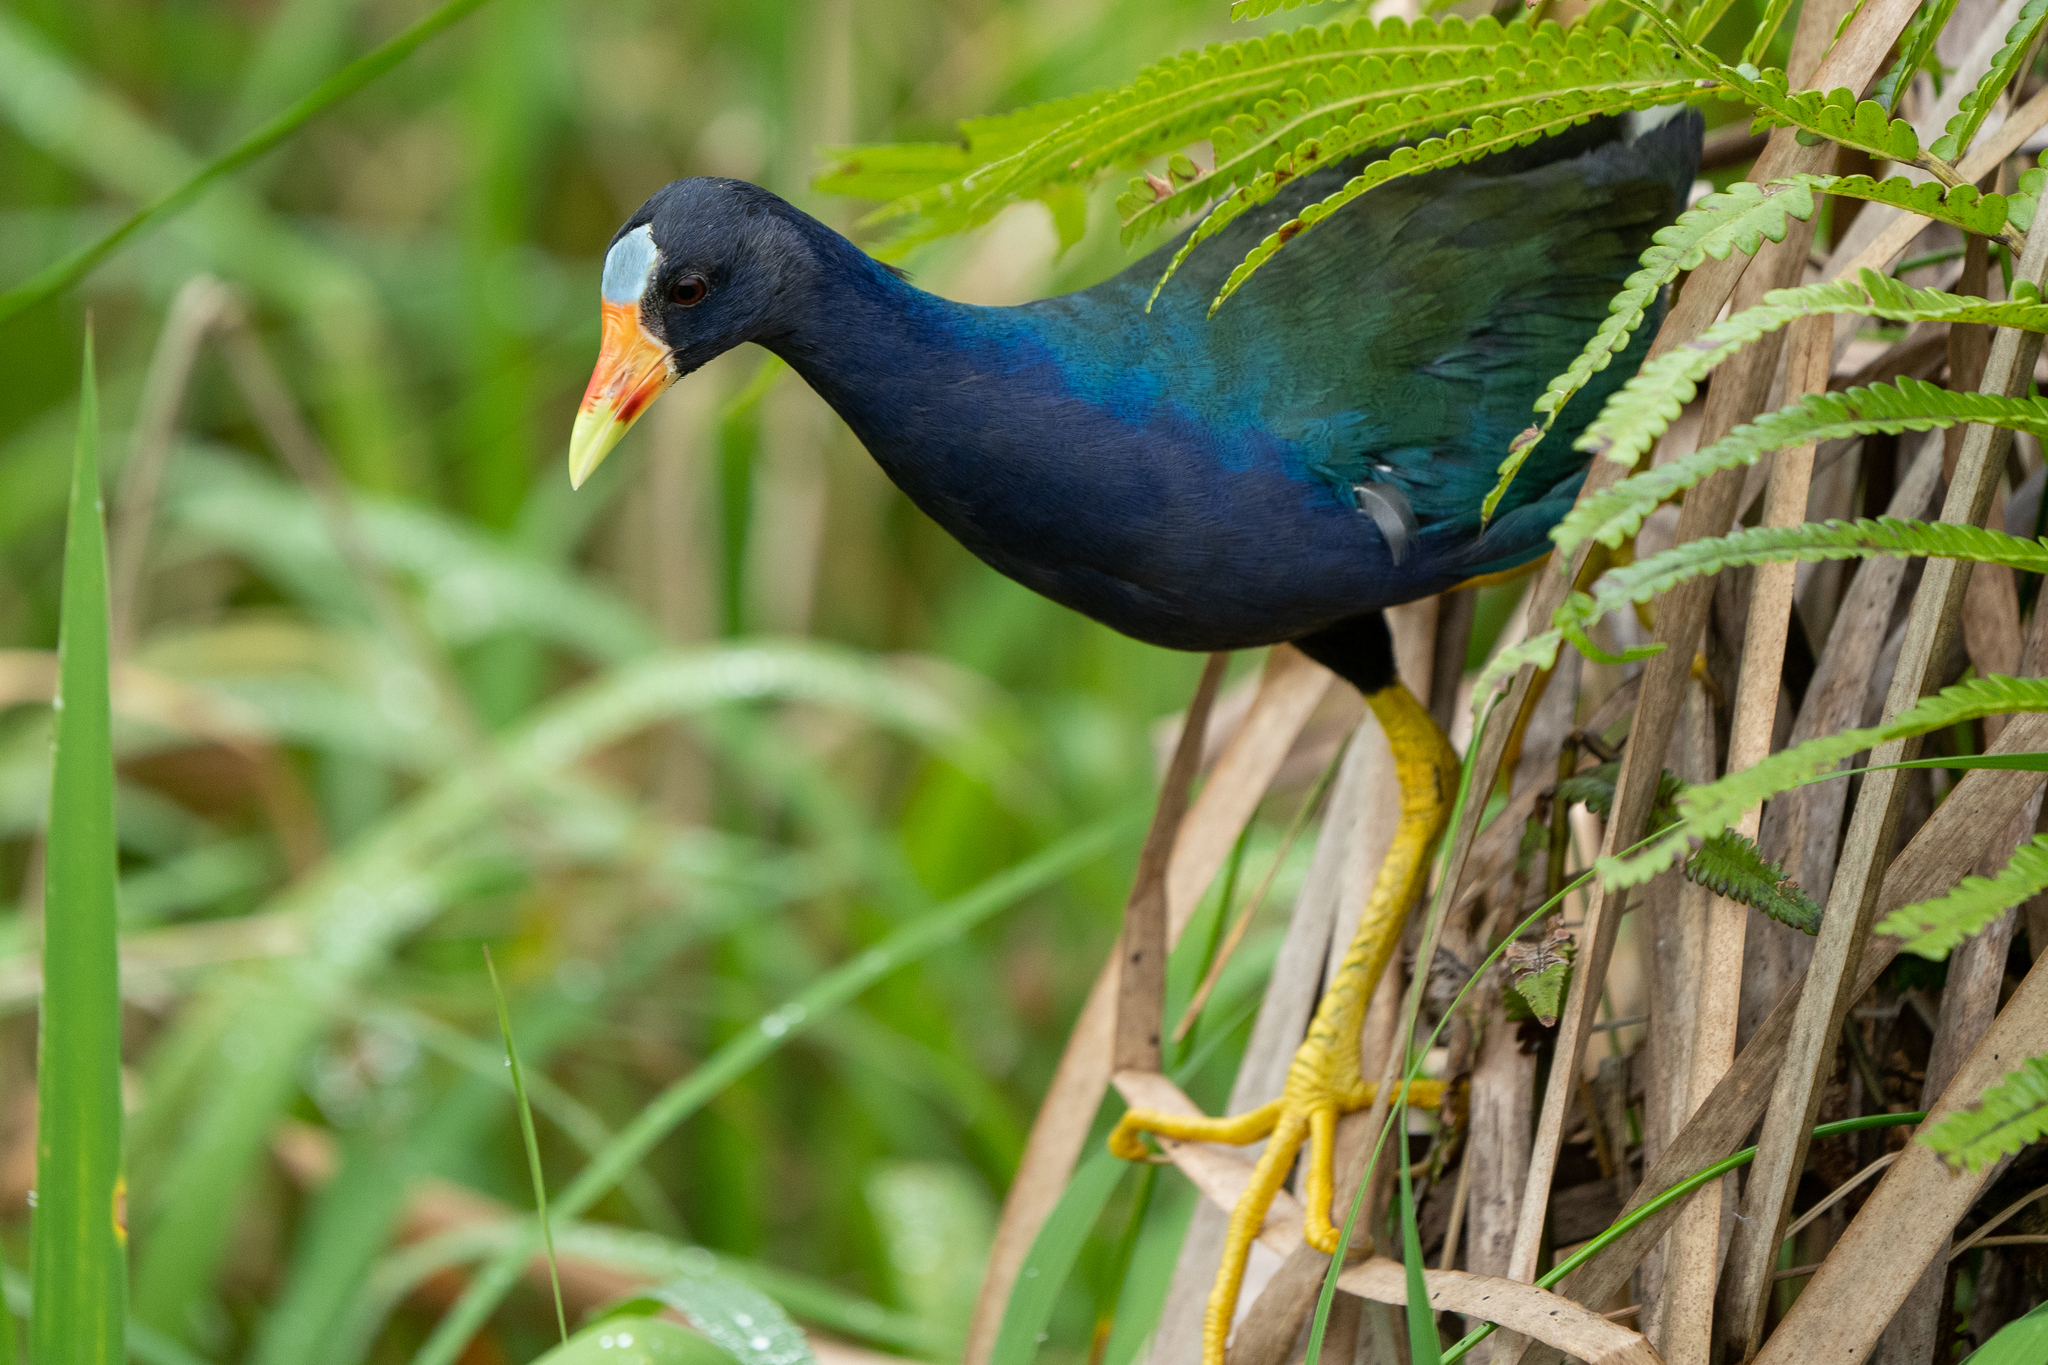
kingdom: Animalia
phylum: Chordata
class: Aves
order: Gruiformes
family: Rallidae
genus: Porphyrio
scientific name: Porphyrio martinica
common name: Purple gallinule
